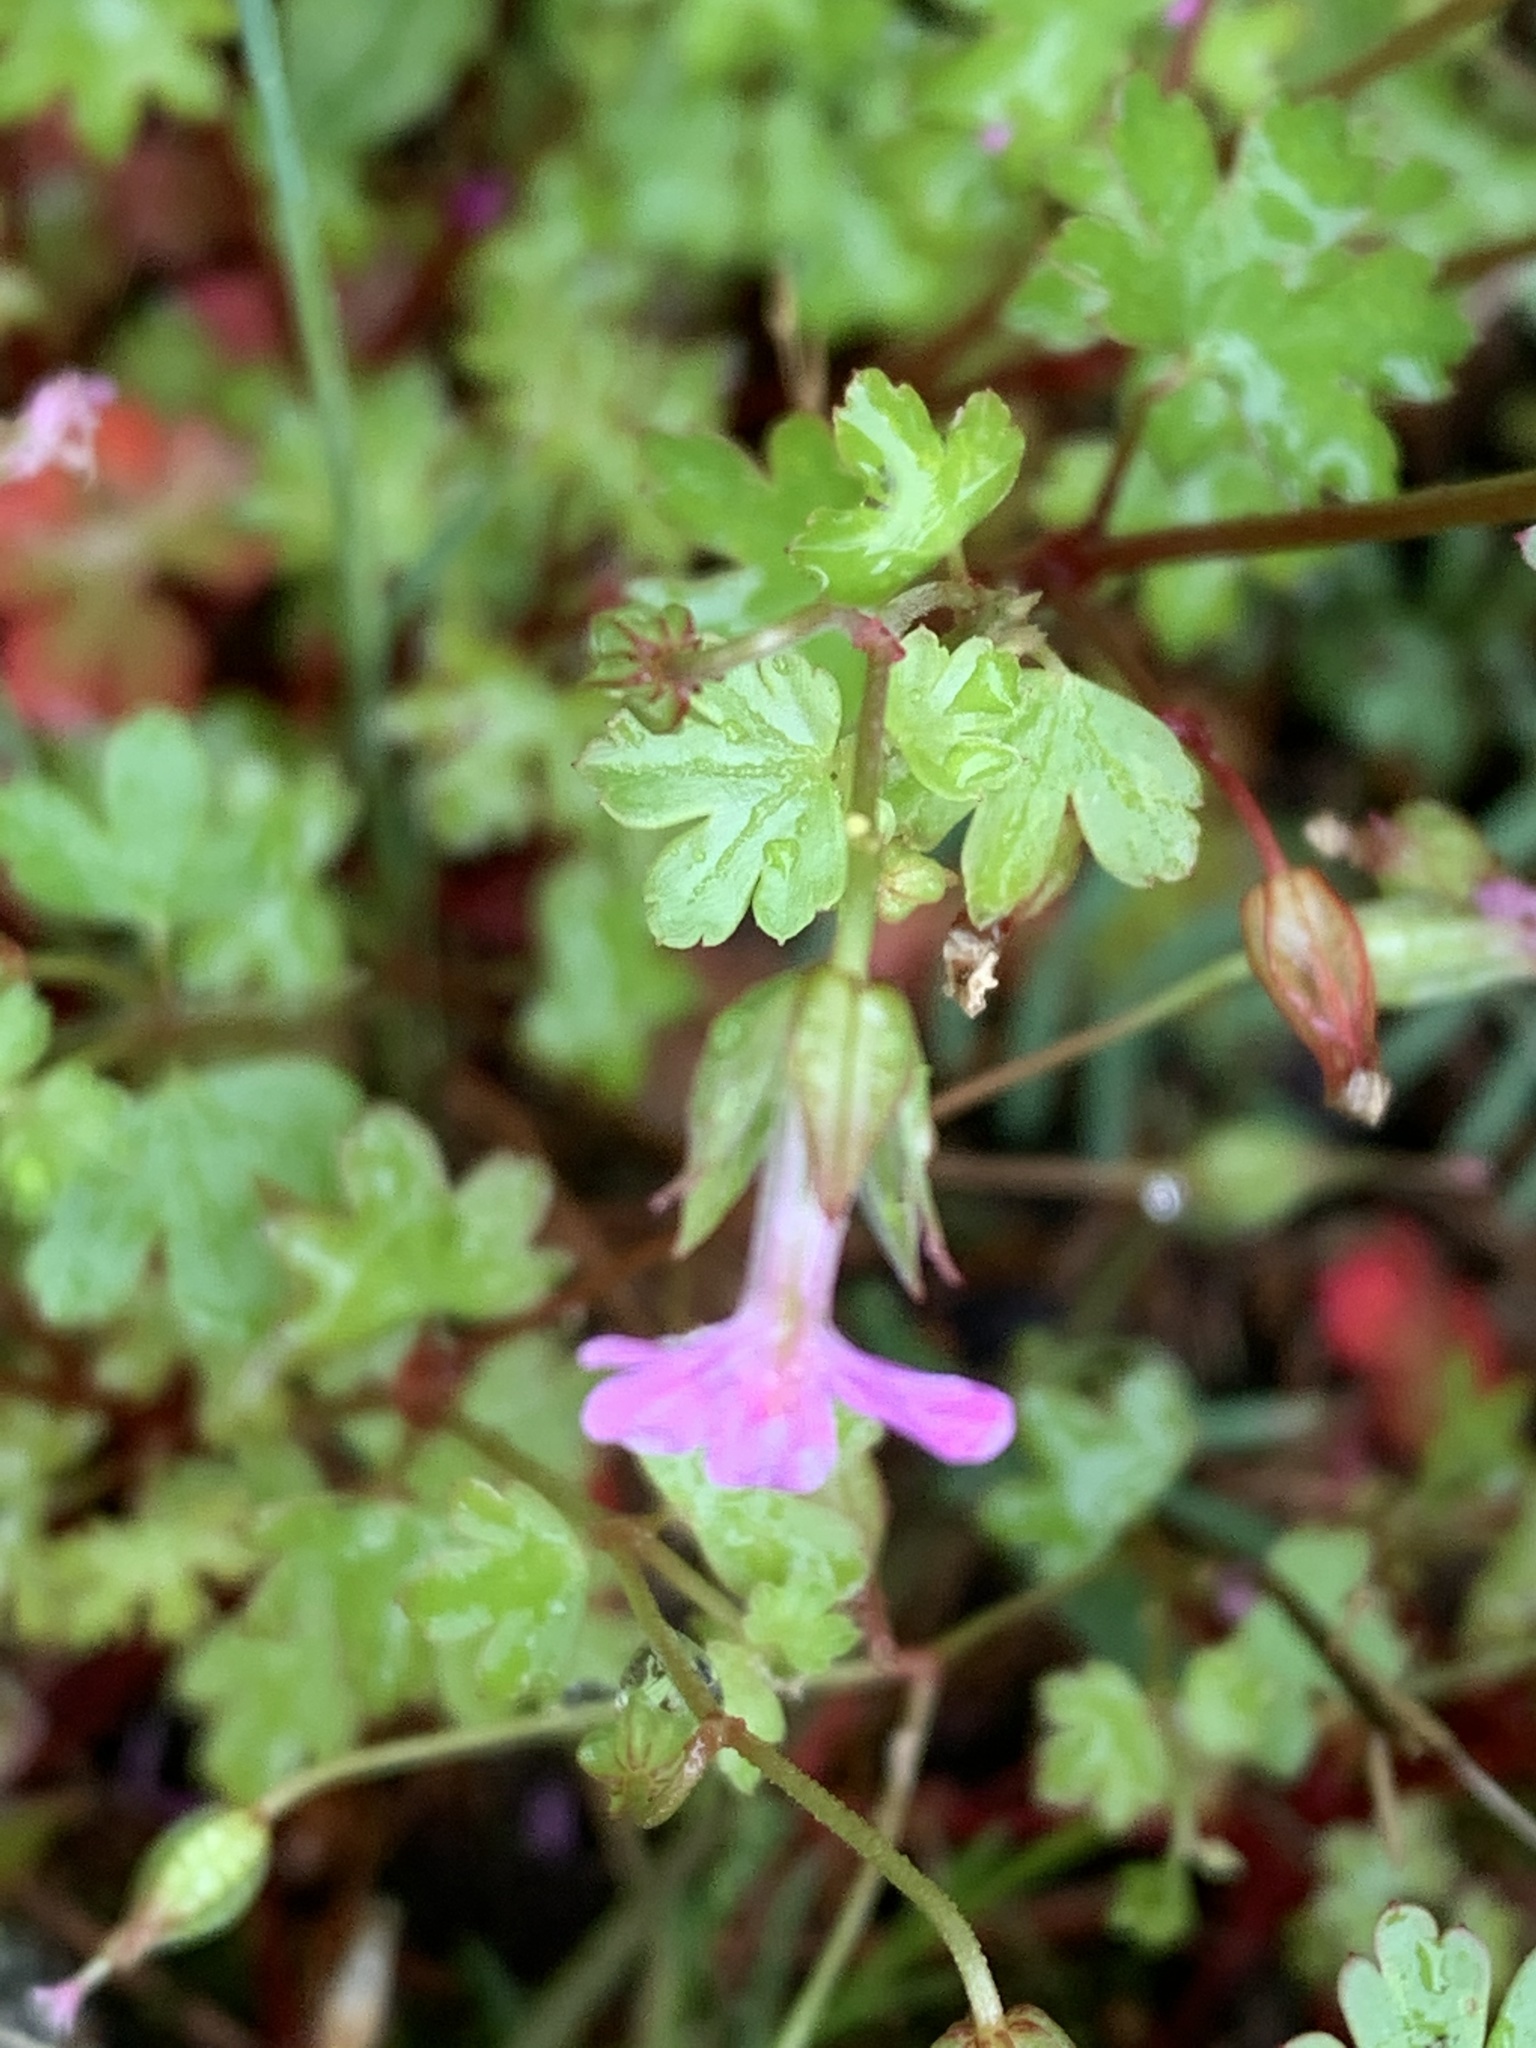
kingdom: Plantae
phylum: Tracheophyta
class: Magnoliopsida
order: Geraniales
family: Geraniaceae
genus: Geranium
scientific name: Geranium lucidum
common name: Shining crane's-bill
